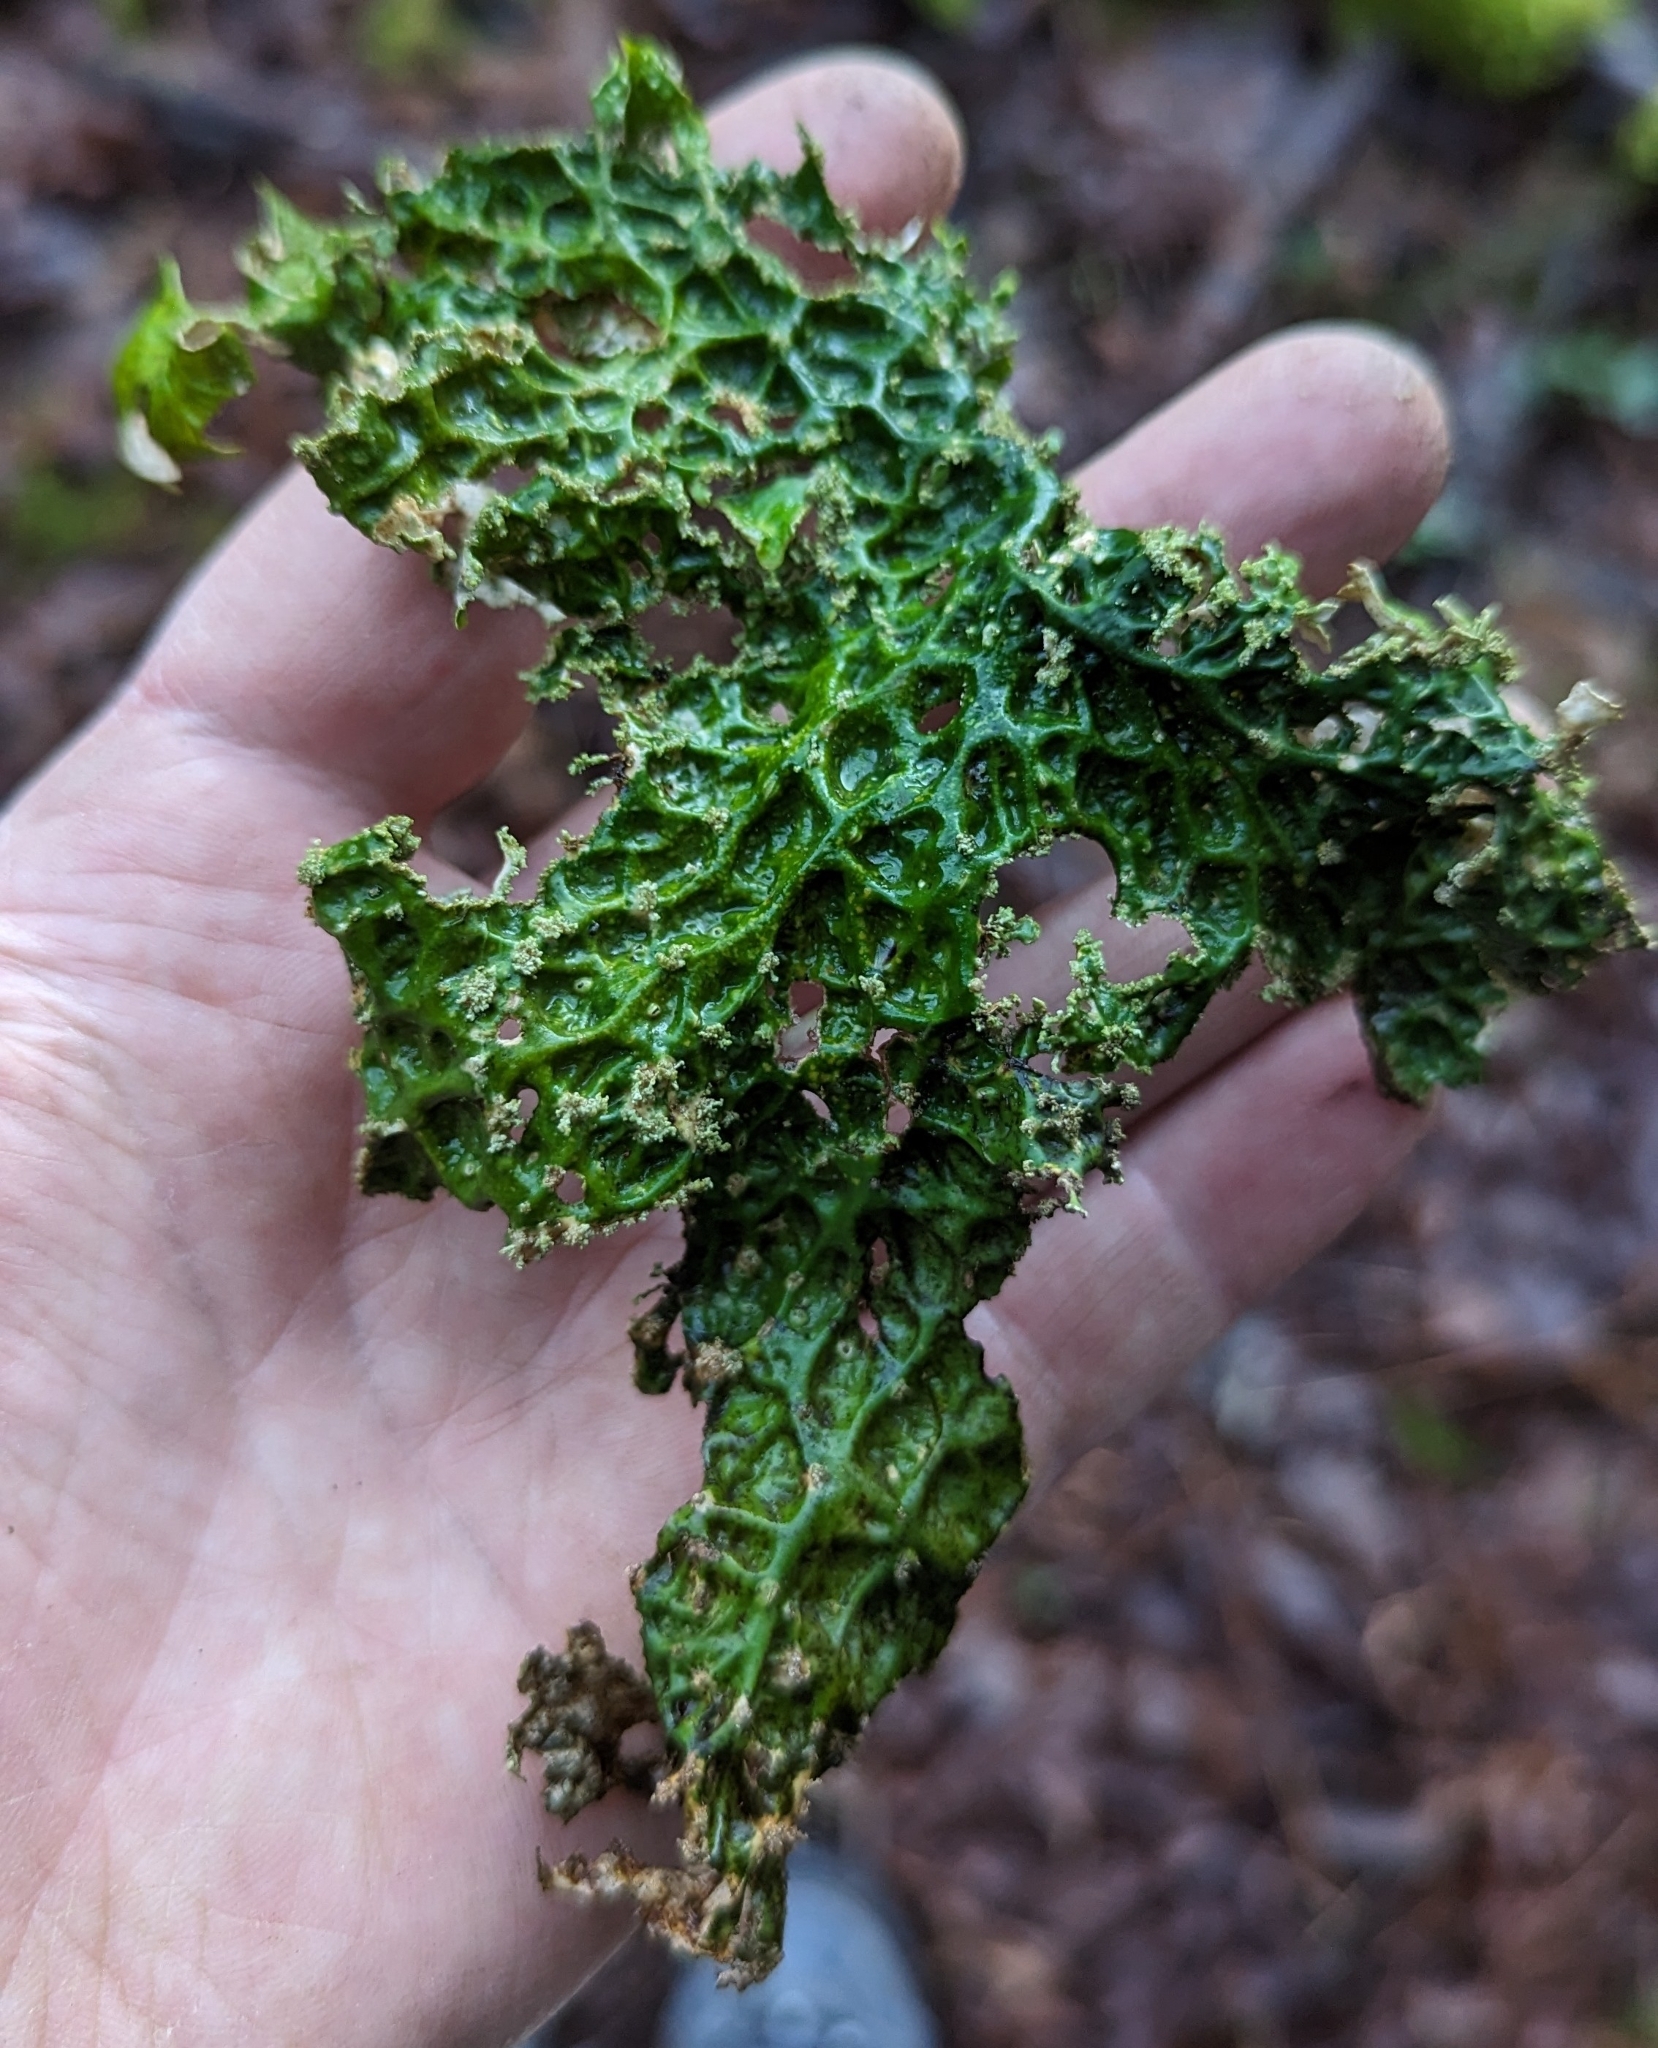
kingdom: Fungi
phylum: Ascomycota
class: Lecanoromycetes
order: Peltigerales
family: Lobariaceae
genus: Lobaria
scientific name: Lobaria pulmonaria
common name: Lungwort
